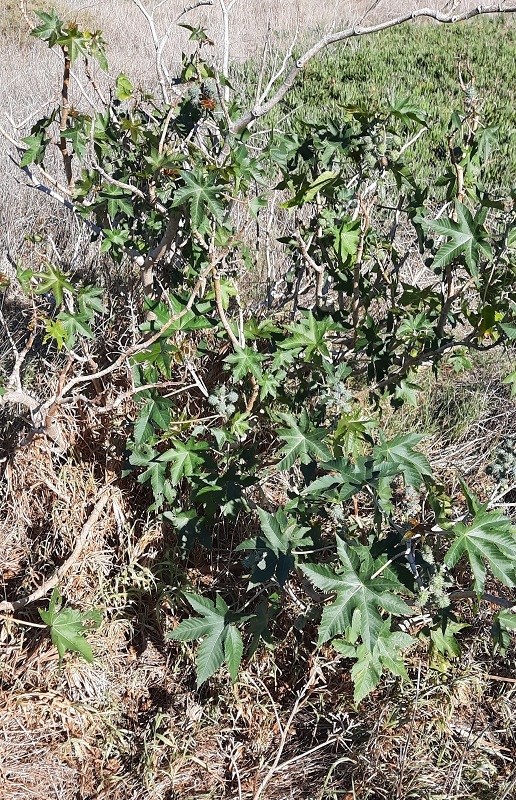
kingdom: Plantae
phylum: Tracheophyta
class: Magnoliopsida
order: Malpighiales
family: Euphorbiaceae
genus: Ricinus
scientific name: Ricinus communis
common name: Castor-oil-plant
